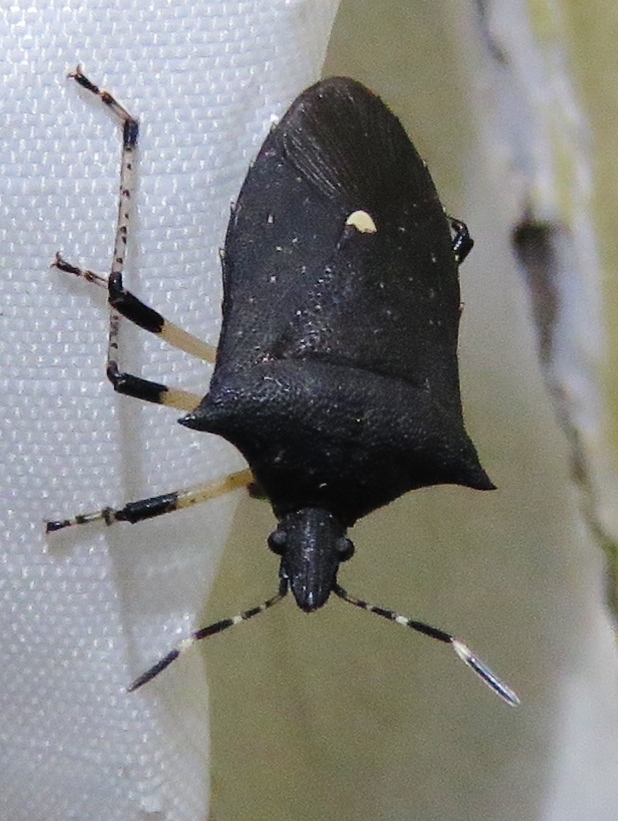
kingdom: Animalia
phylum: Arthropoda
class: Insecta
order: Hemiptera
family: Pentatomidae
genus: Proxys
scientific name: Proxys punctulatus
